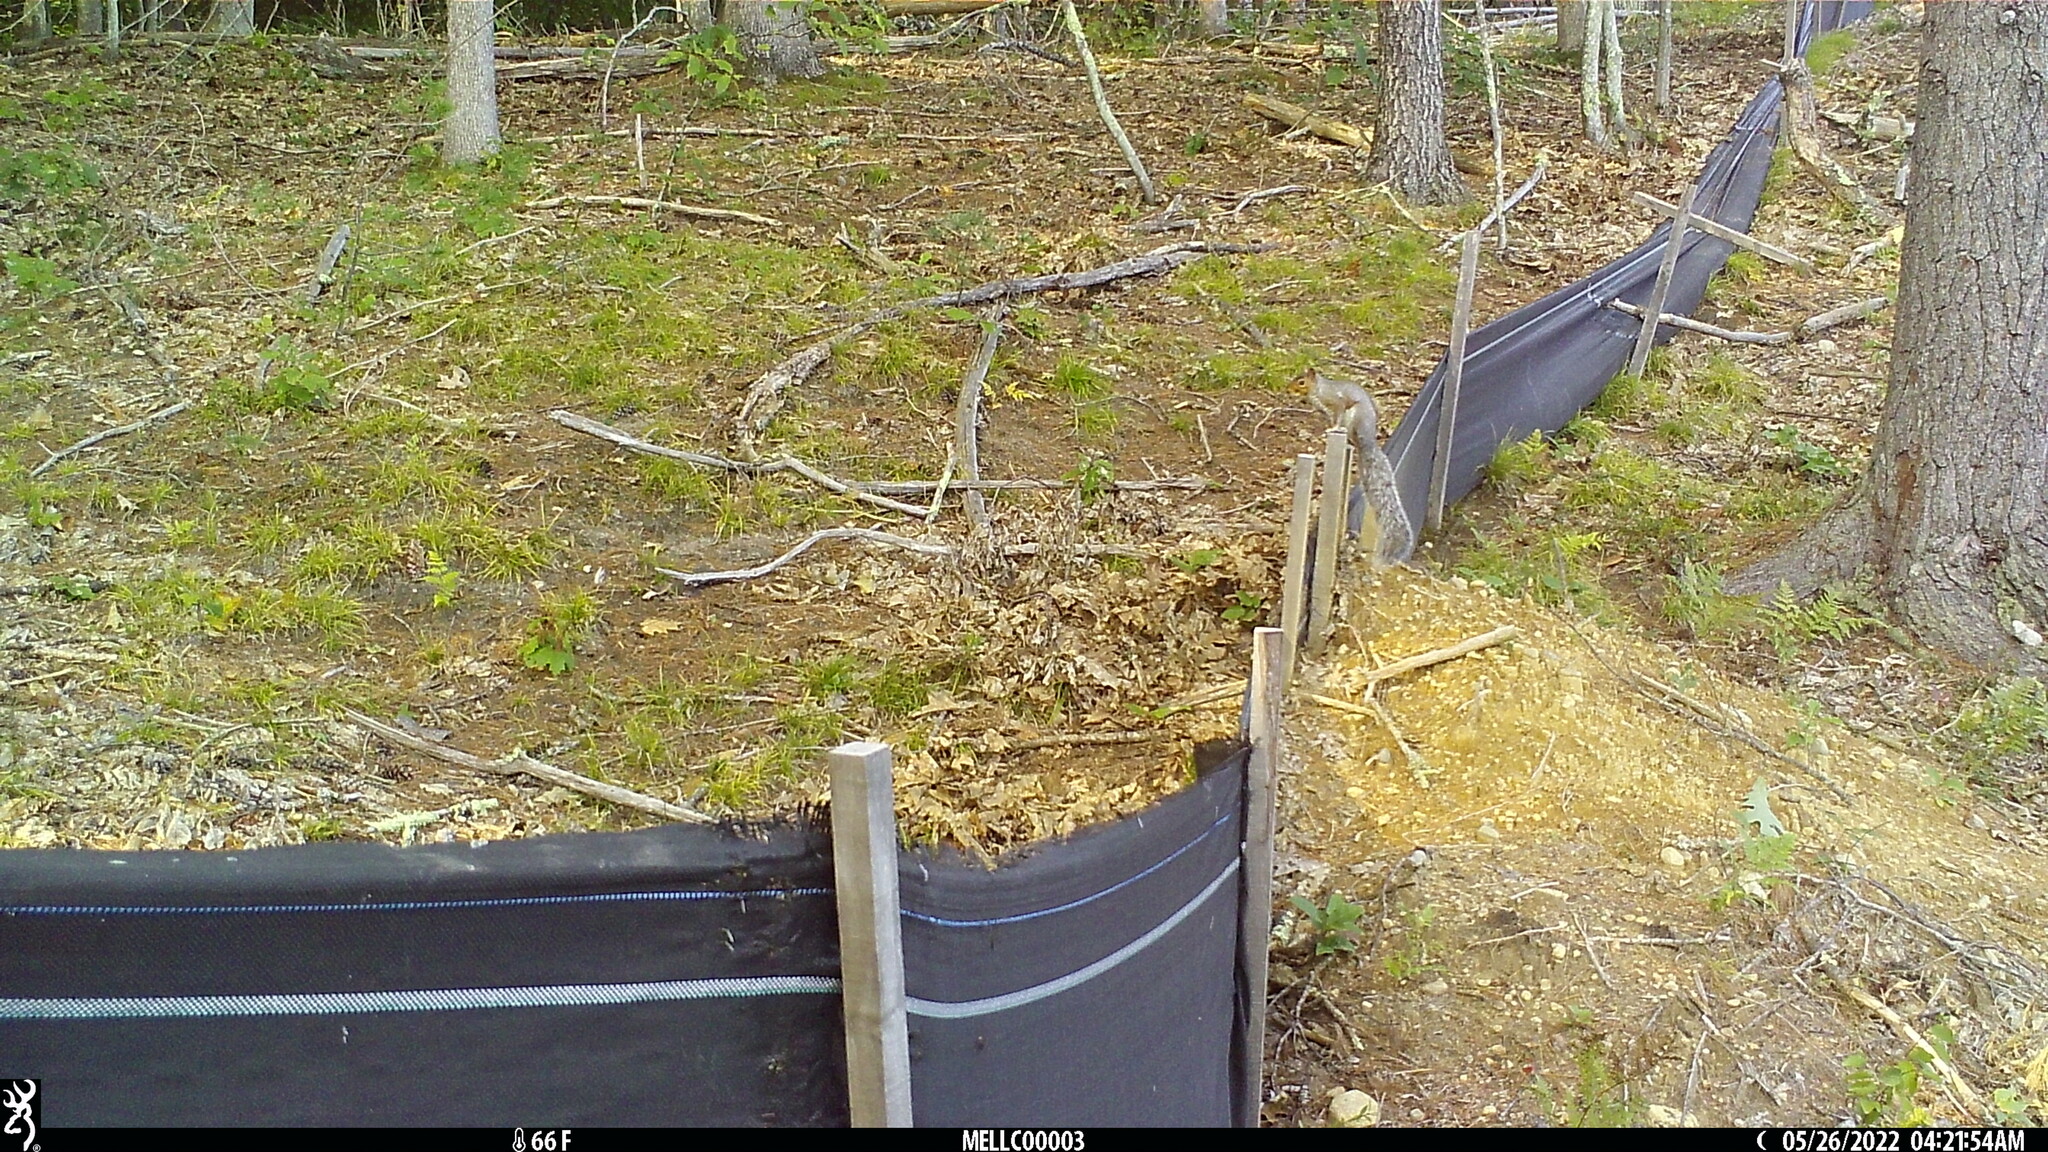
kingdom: Animalia
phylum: Chordata
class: Mammalia
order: Rodentia
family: Sciuridae
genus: Sciurus
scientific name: Sciurus carolinensis
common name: Eastern gray squirrel
